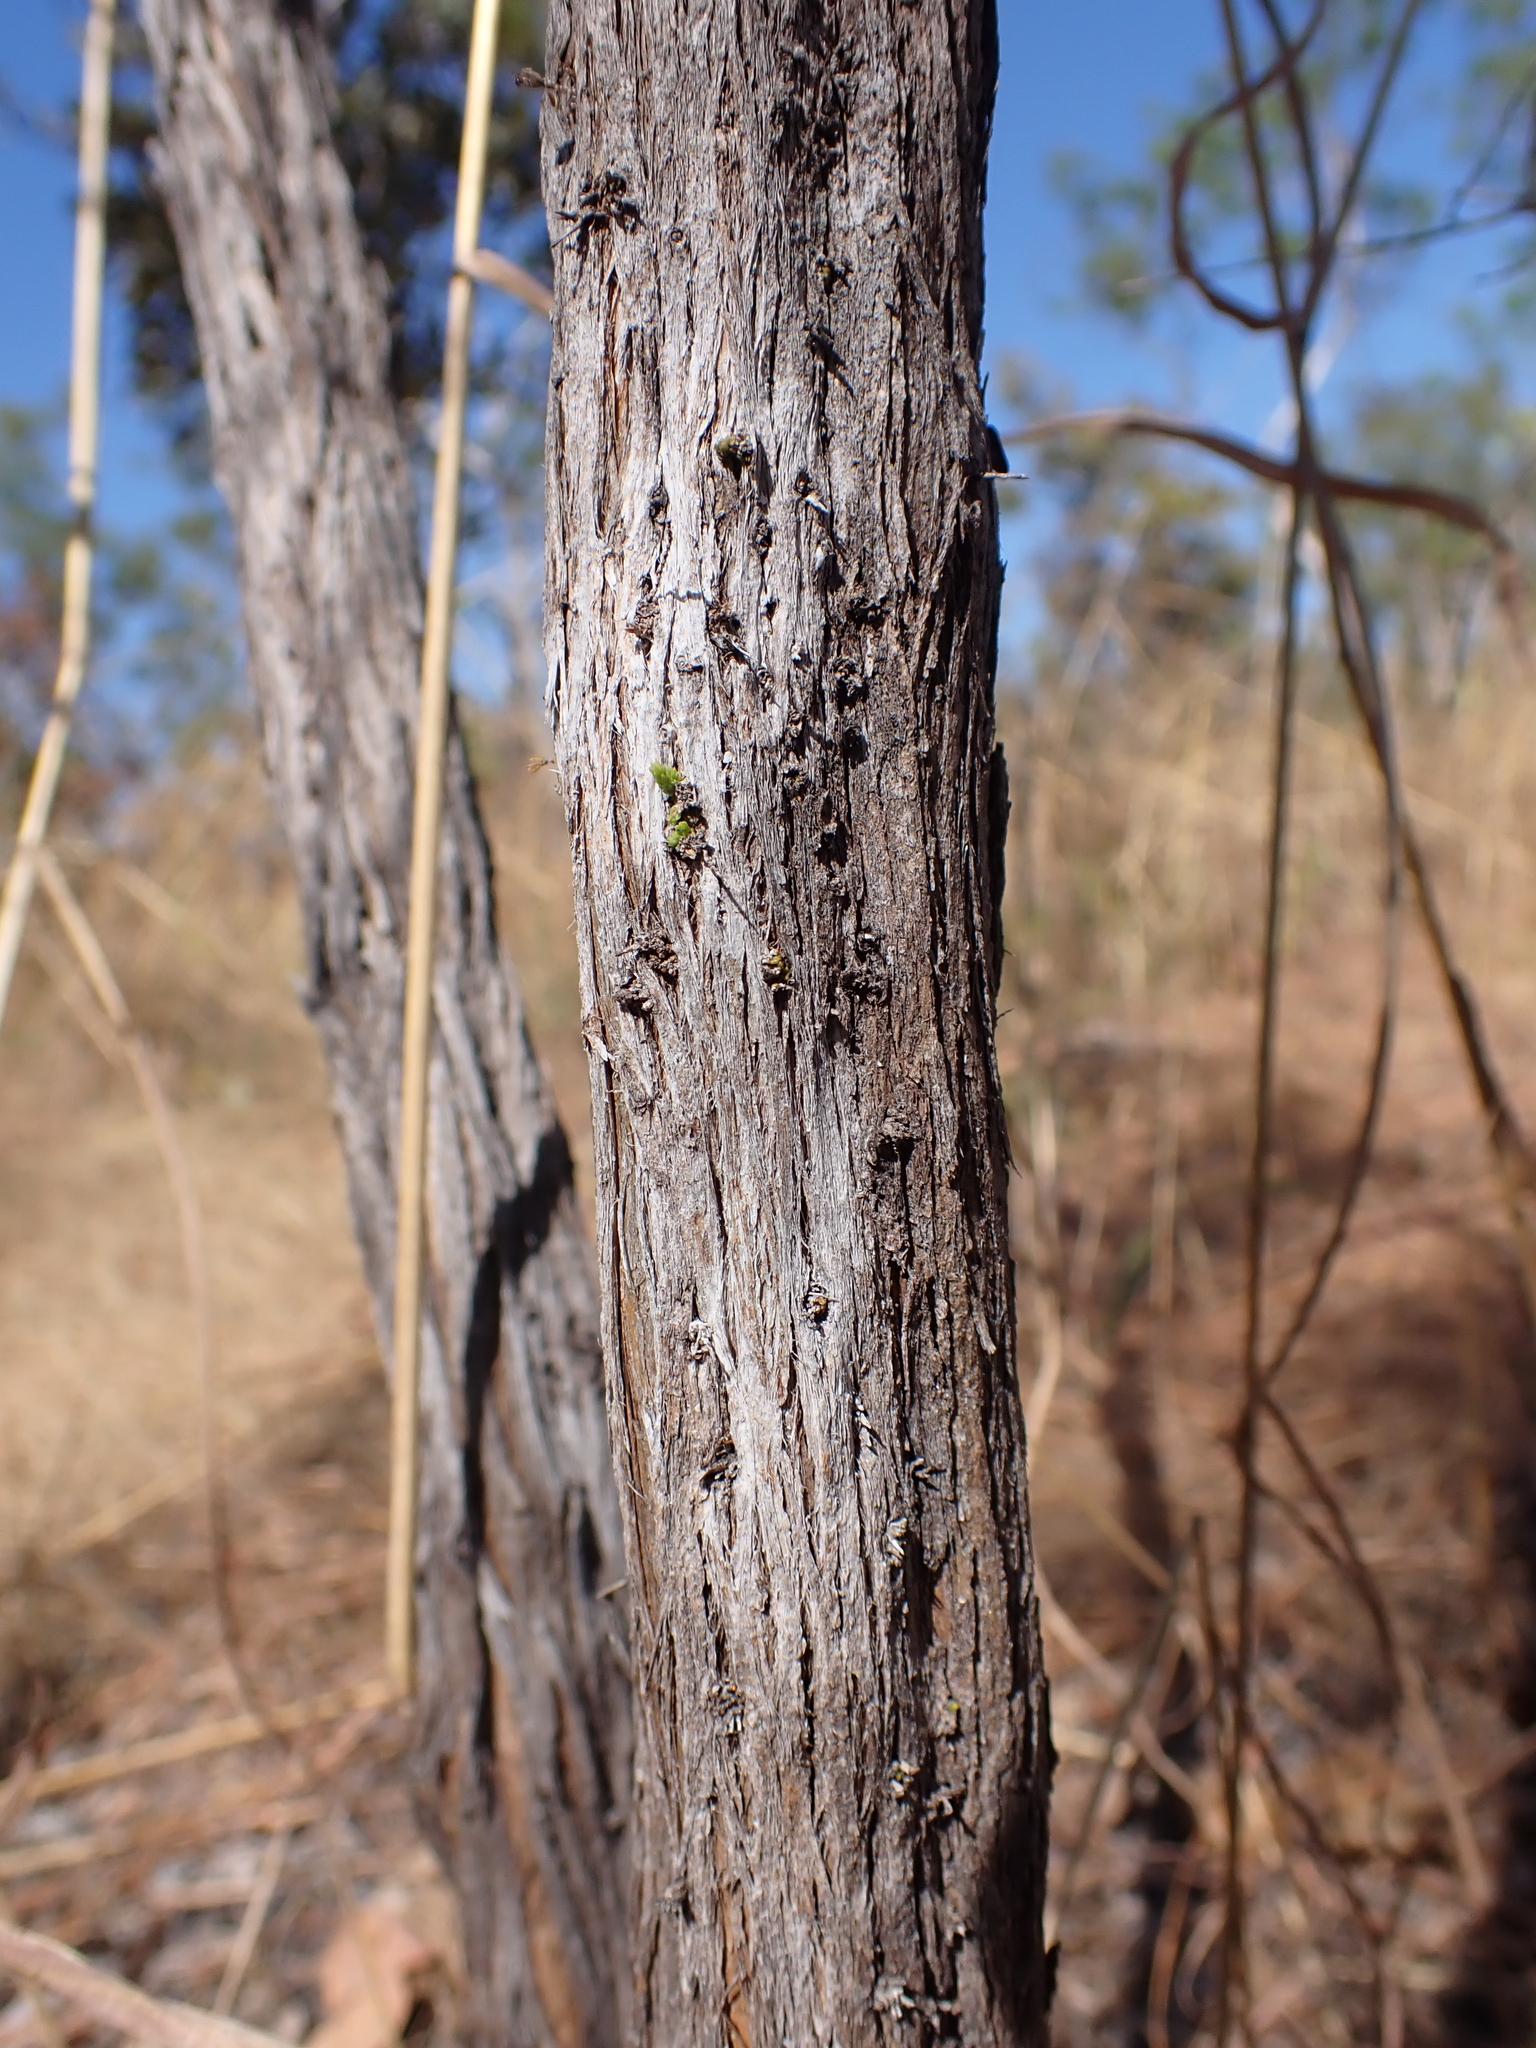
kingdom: Plantae
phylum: Tracheophyta
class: Magnoliopsida
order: Myrtales
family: Myrtaceae
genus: Calytrix
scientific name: Calytrix exstipulata
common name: Kimberley heather
